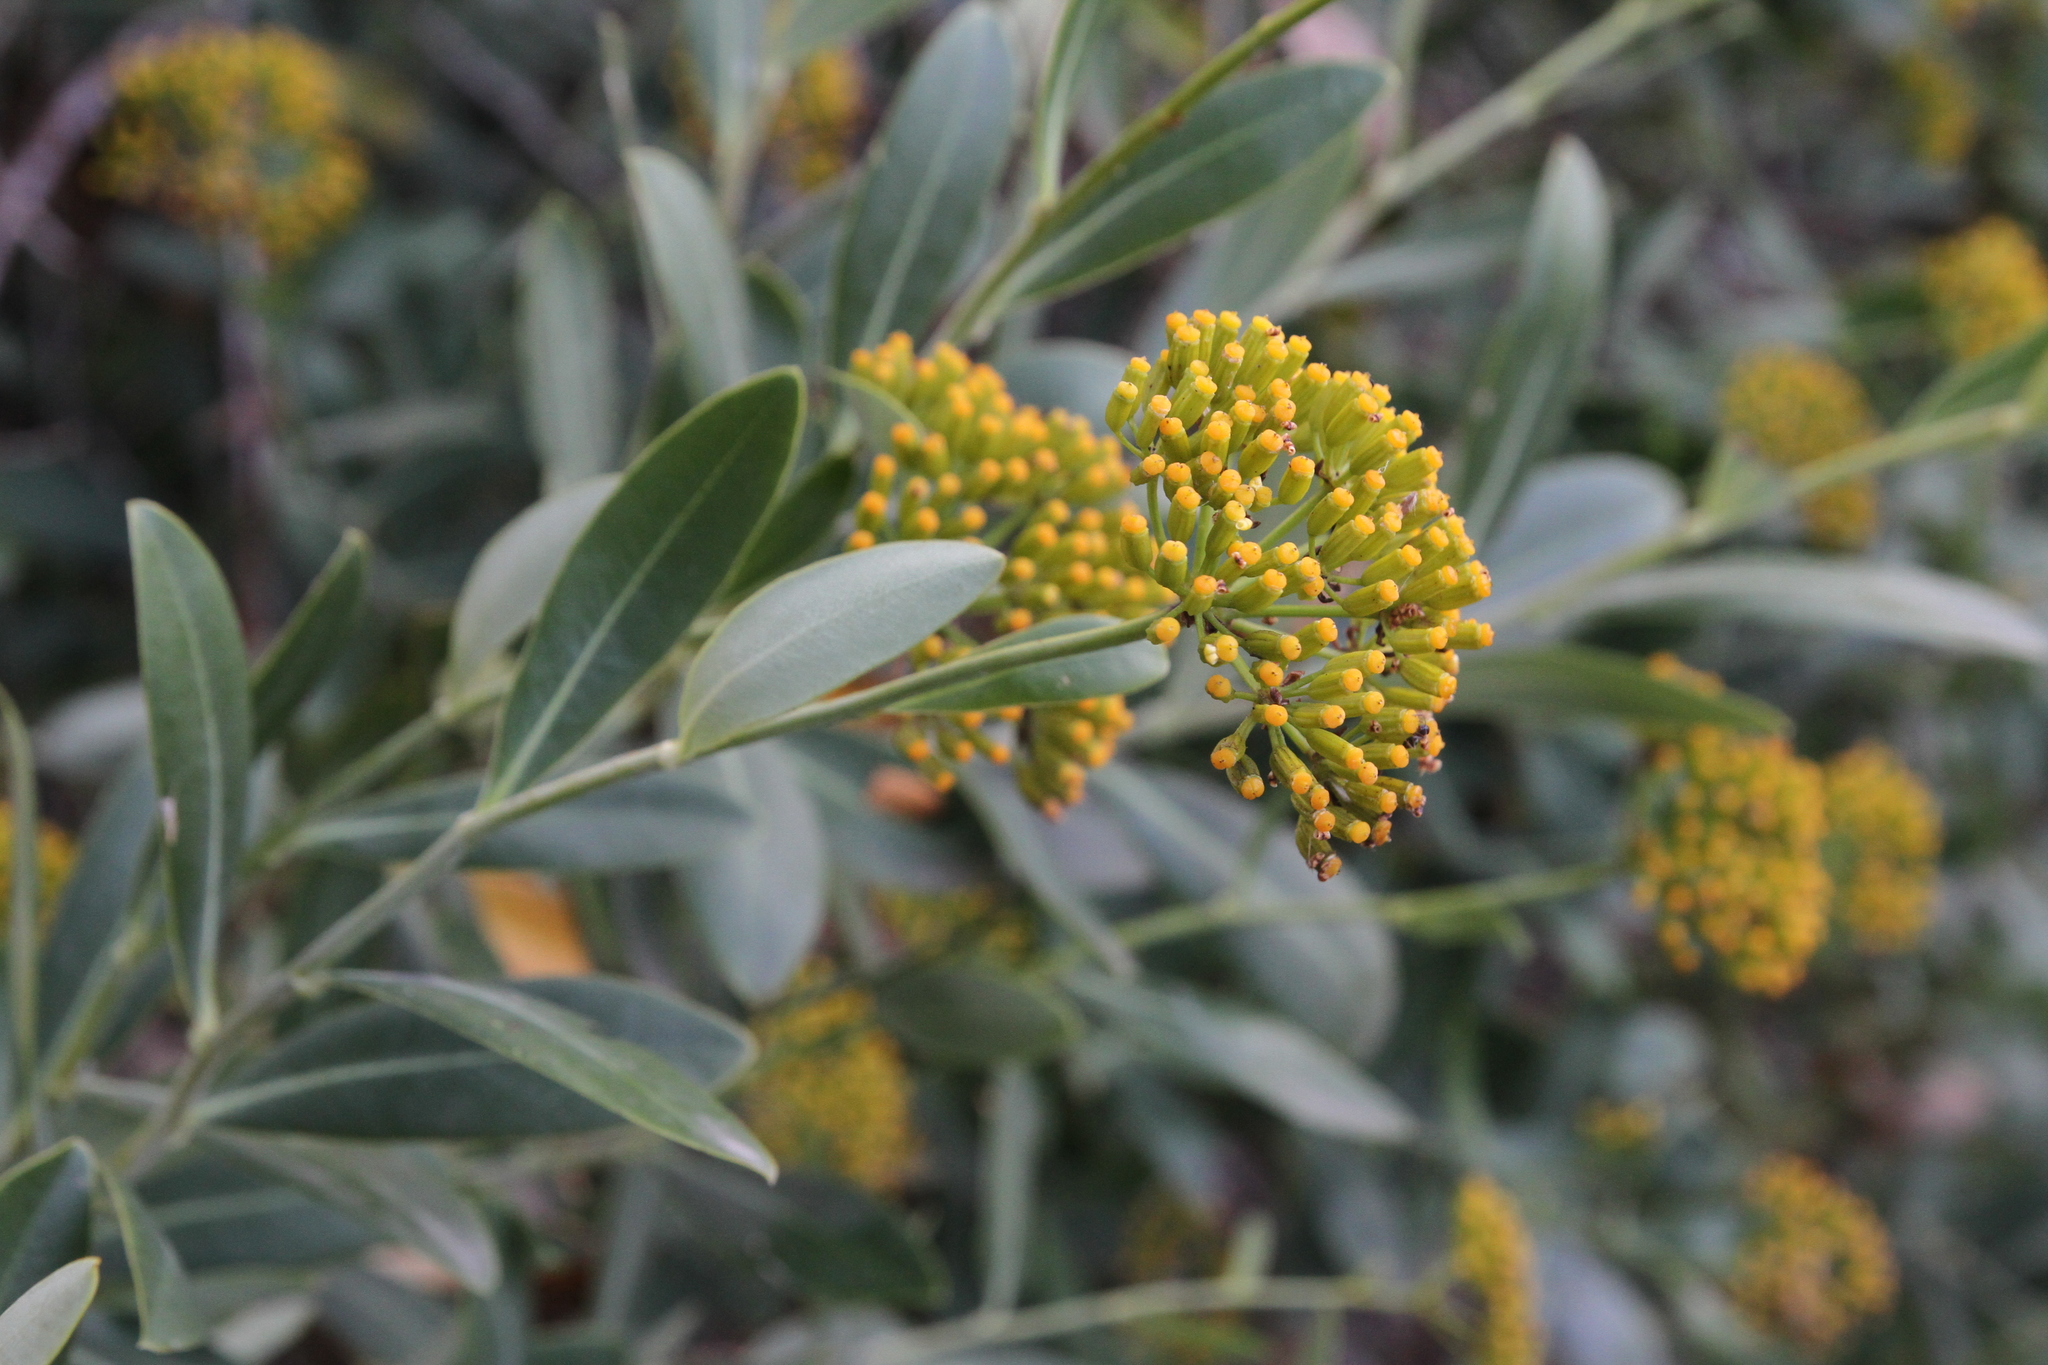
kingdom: Plantae
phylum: Tracheophyta
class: Magnoliopsida
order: Apiales
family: Apiaceae
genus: Bupleurum
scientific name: Bupleurum fruticosum
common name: Shrubby hare's-ear
